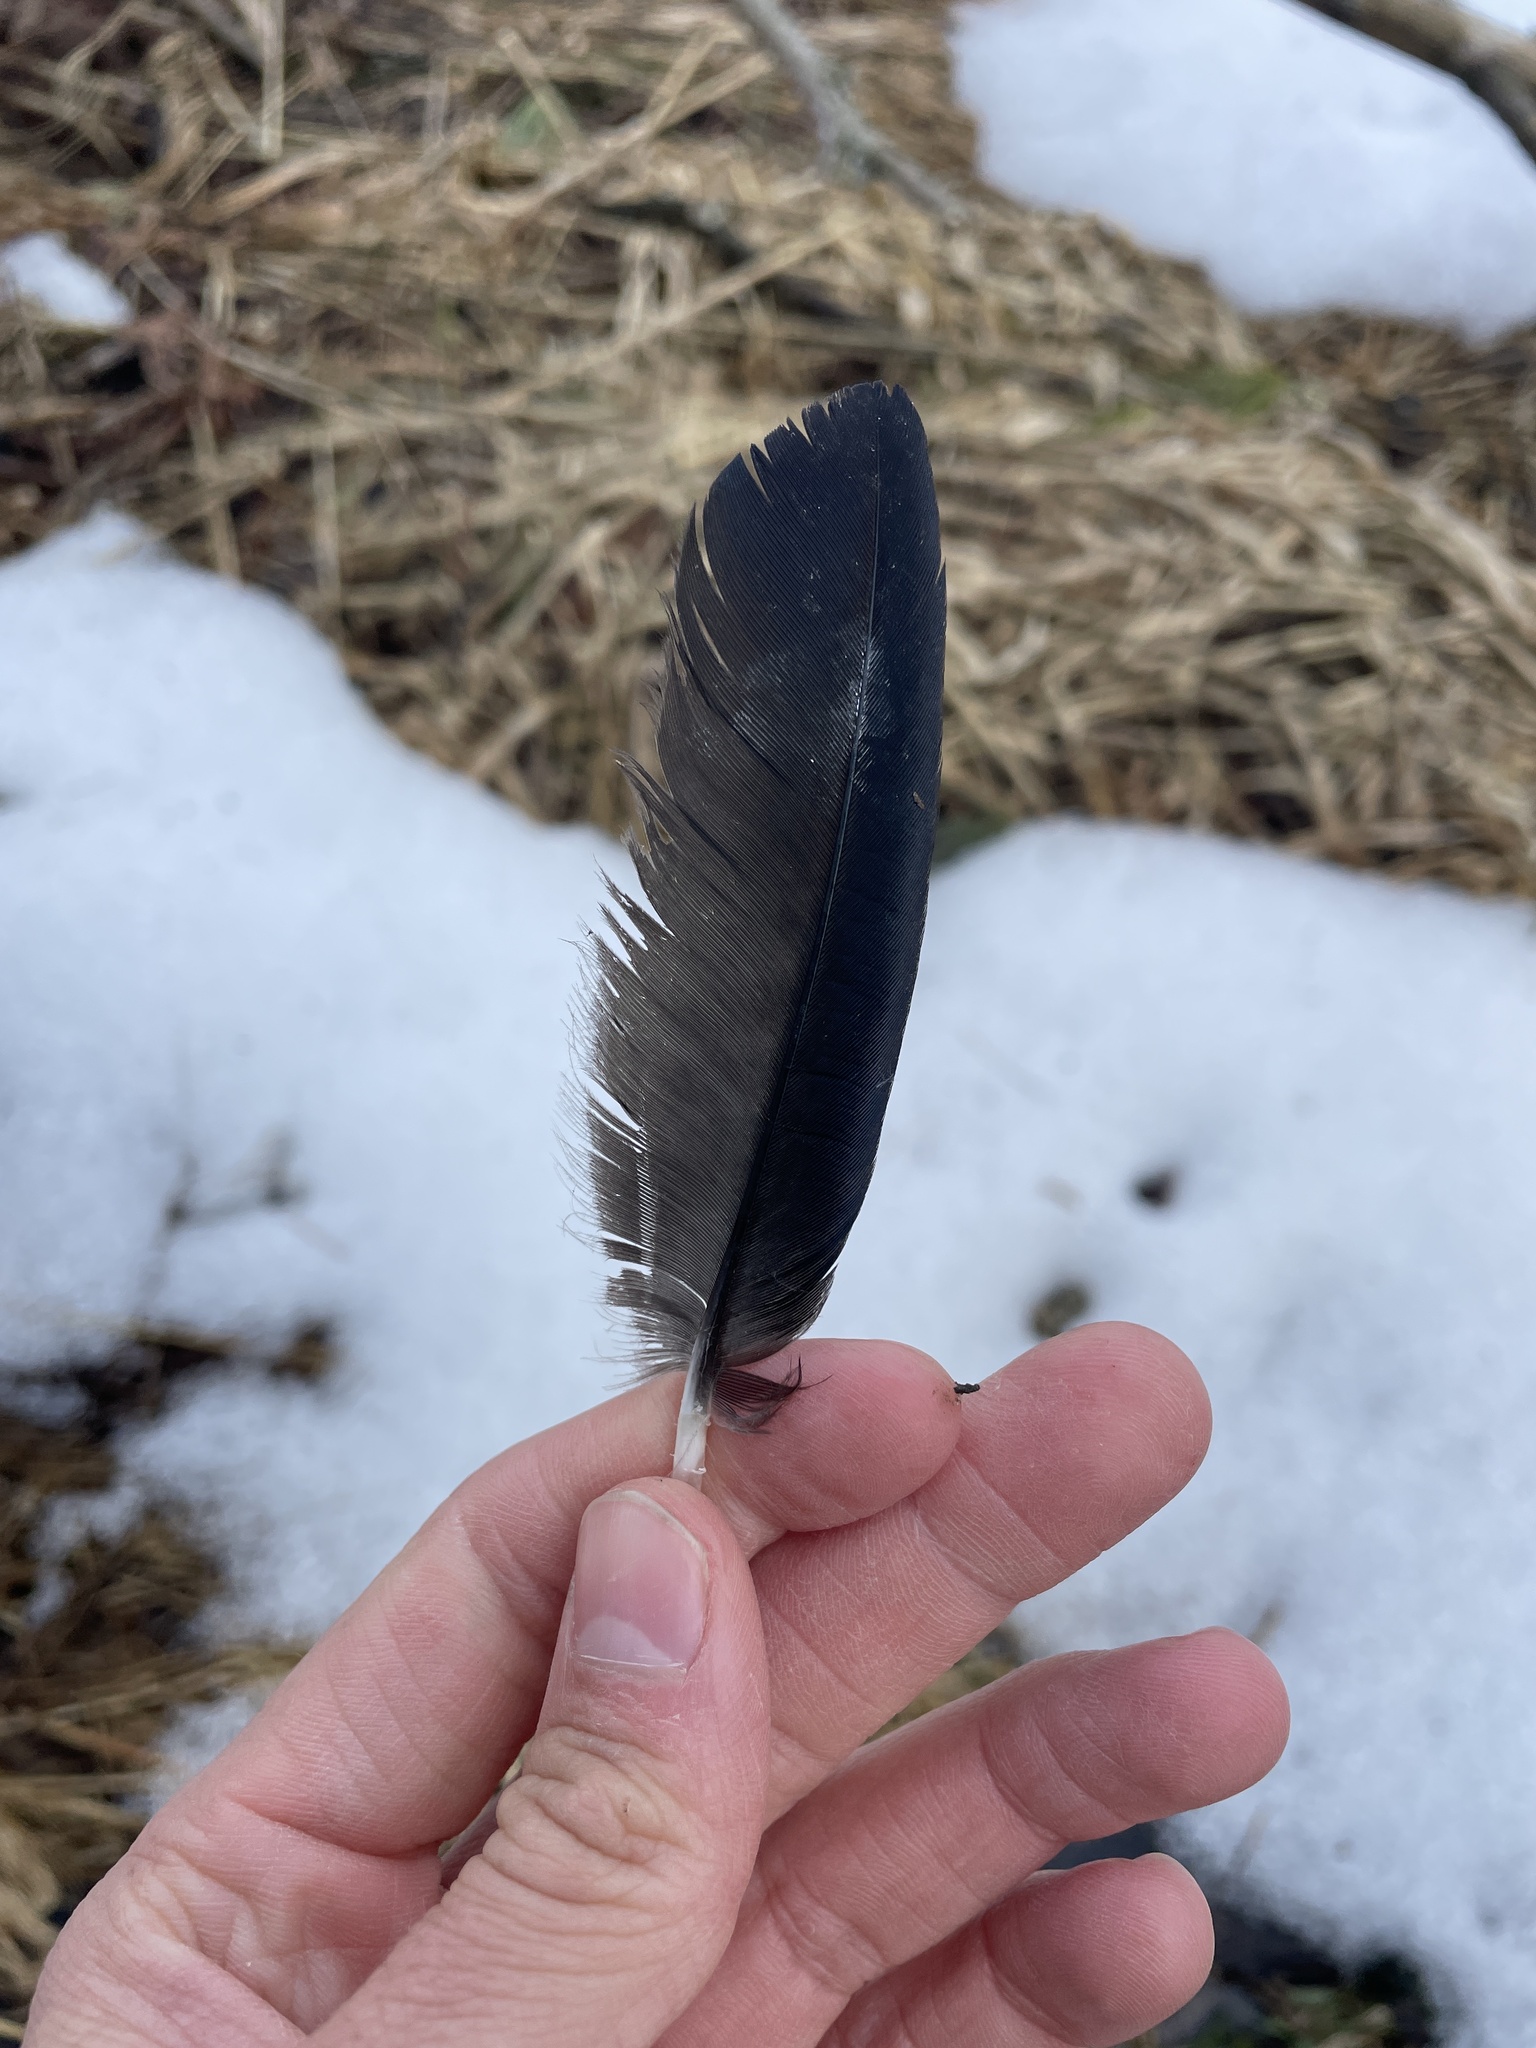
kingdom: Animalia
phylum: Chordata
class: Aves
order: Passeriformes
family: Corvidae
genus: Corvus
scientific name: Corvus brachyrhynchos
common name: American crow
